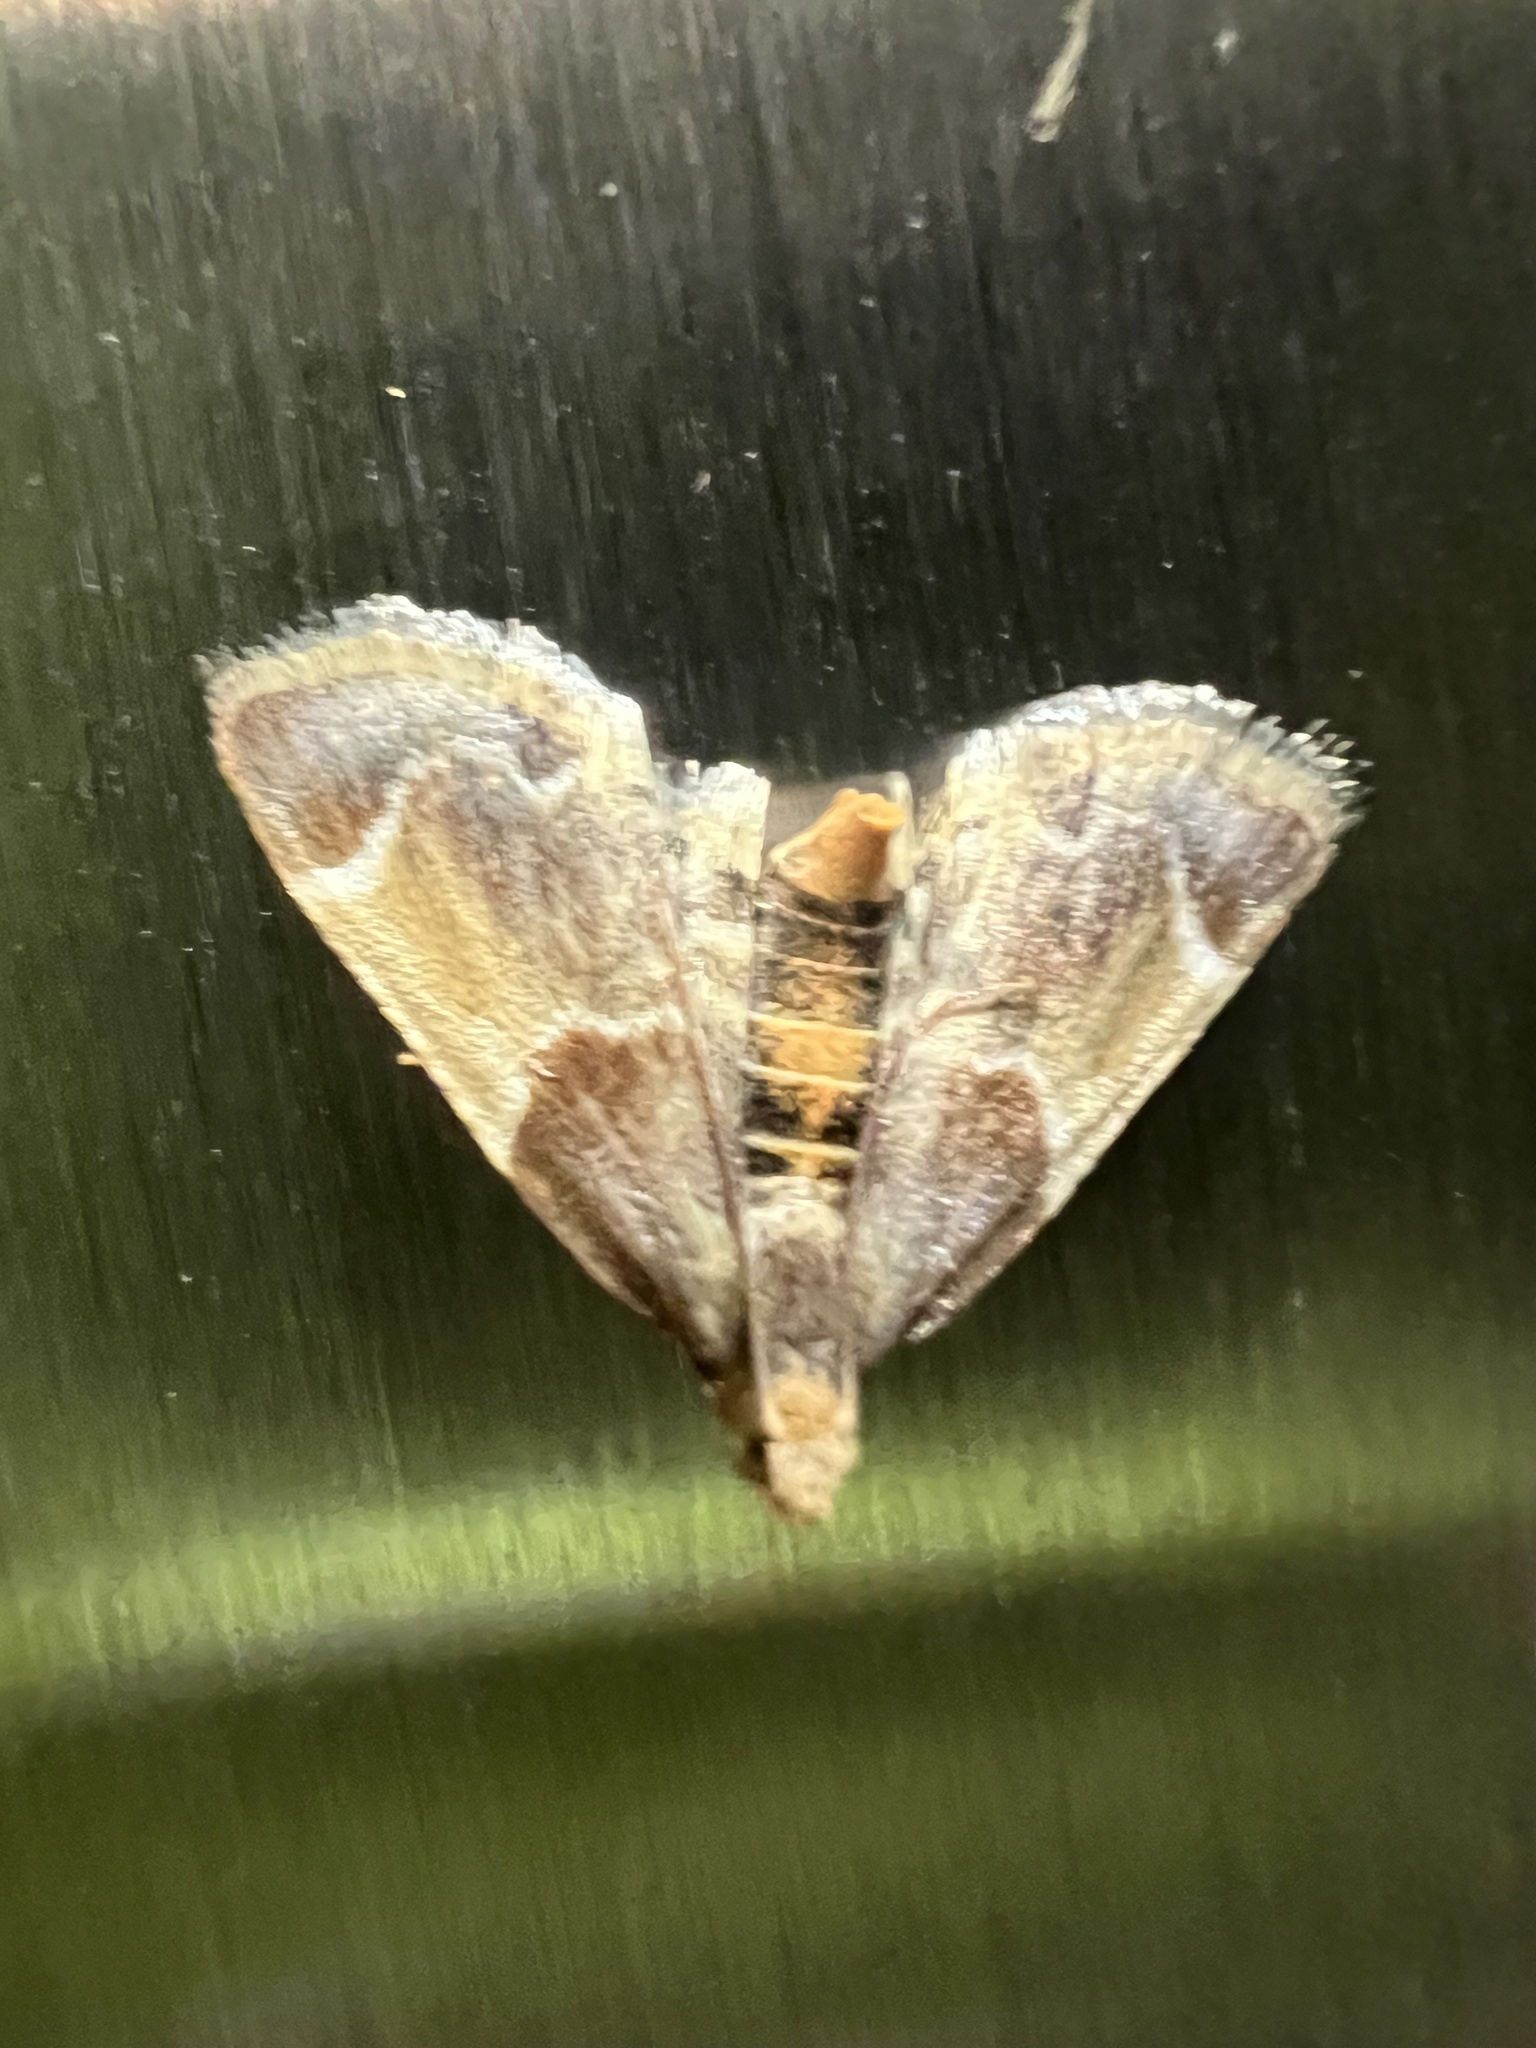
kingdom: Animalia
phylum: Arthropoda
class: Insecta
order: Lepidoptera
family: Pyralidae
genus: Pyralis
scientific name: Pyralis farinalis
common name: Meal moth
